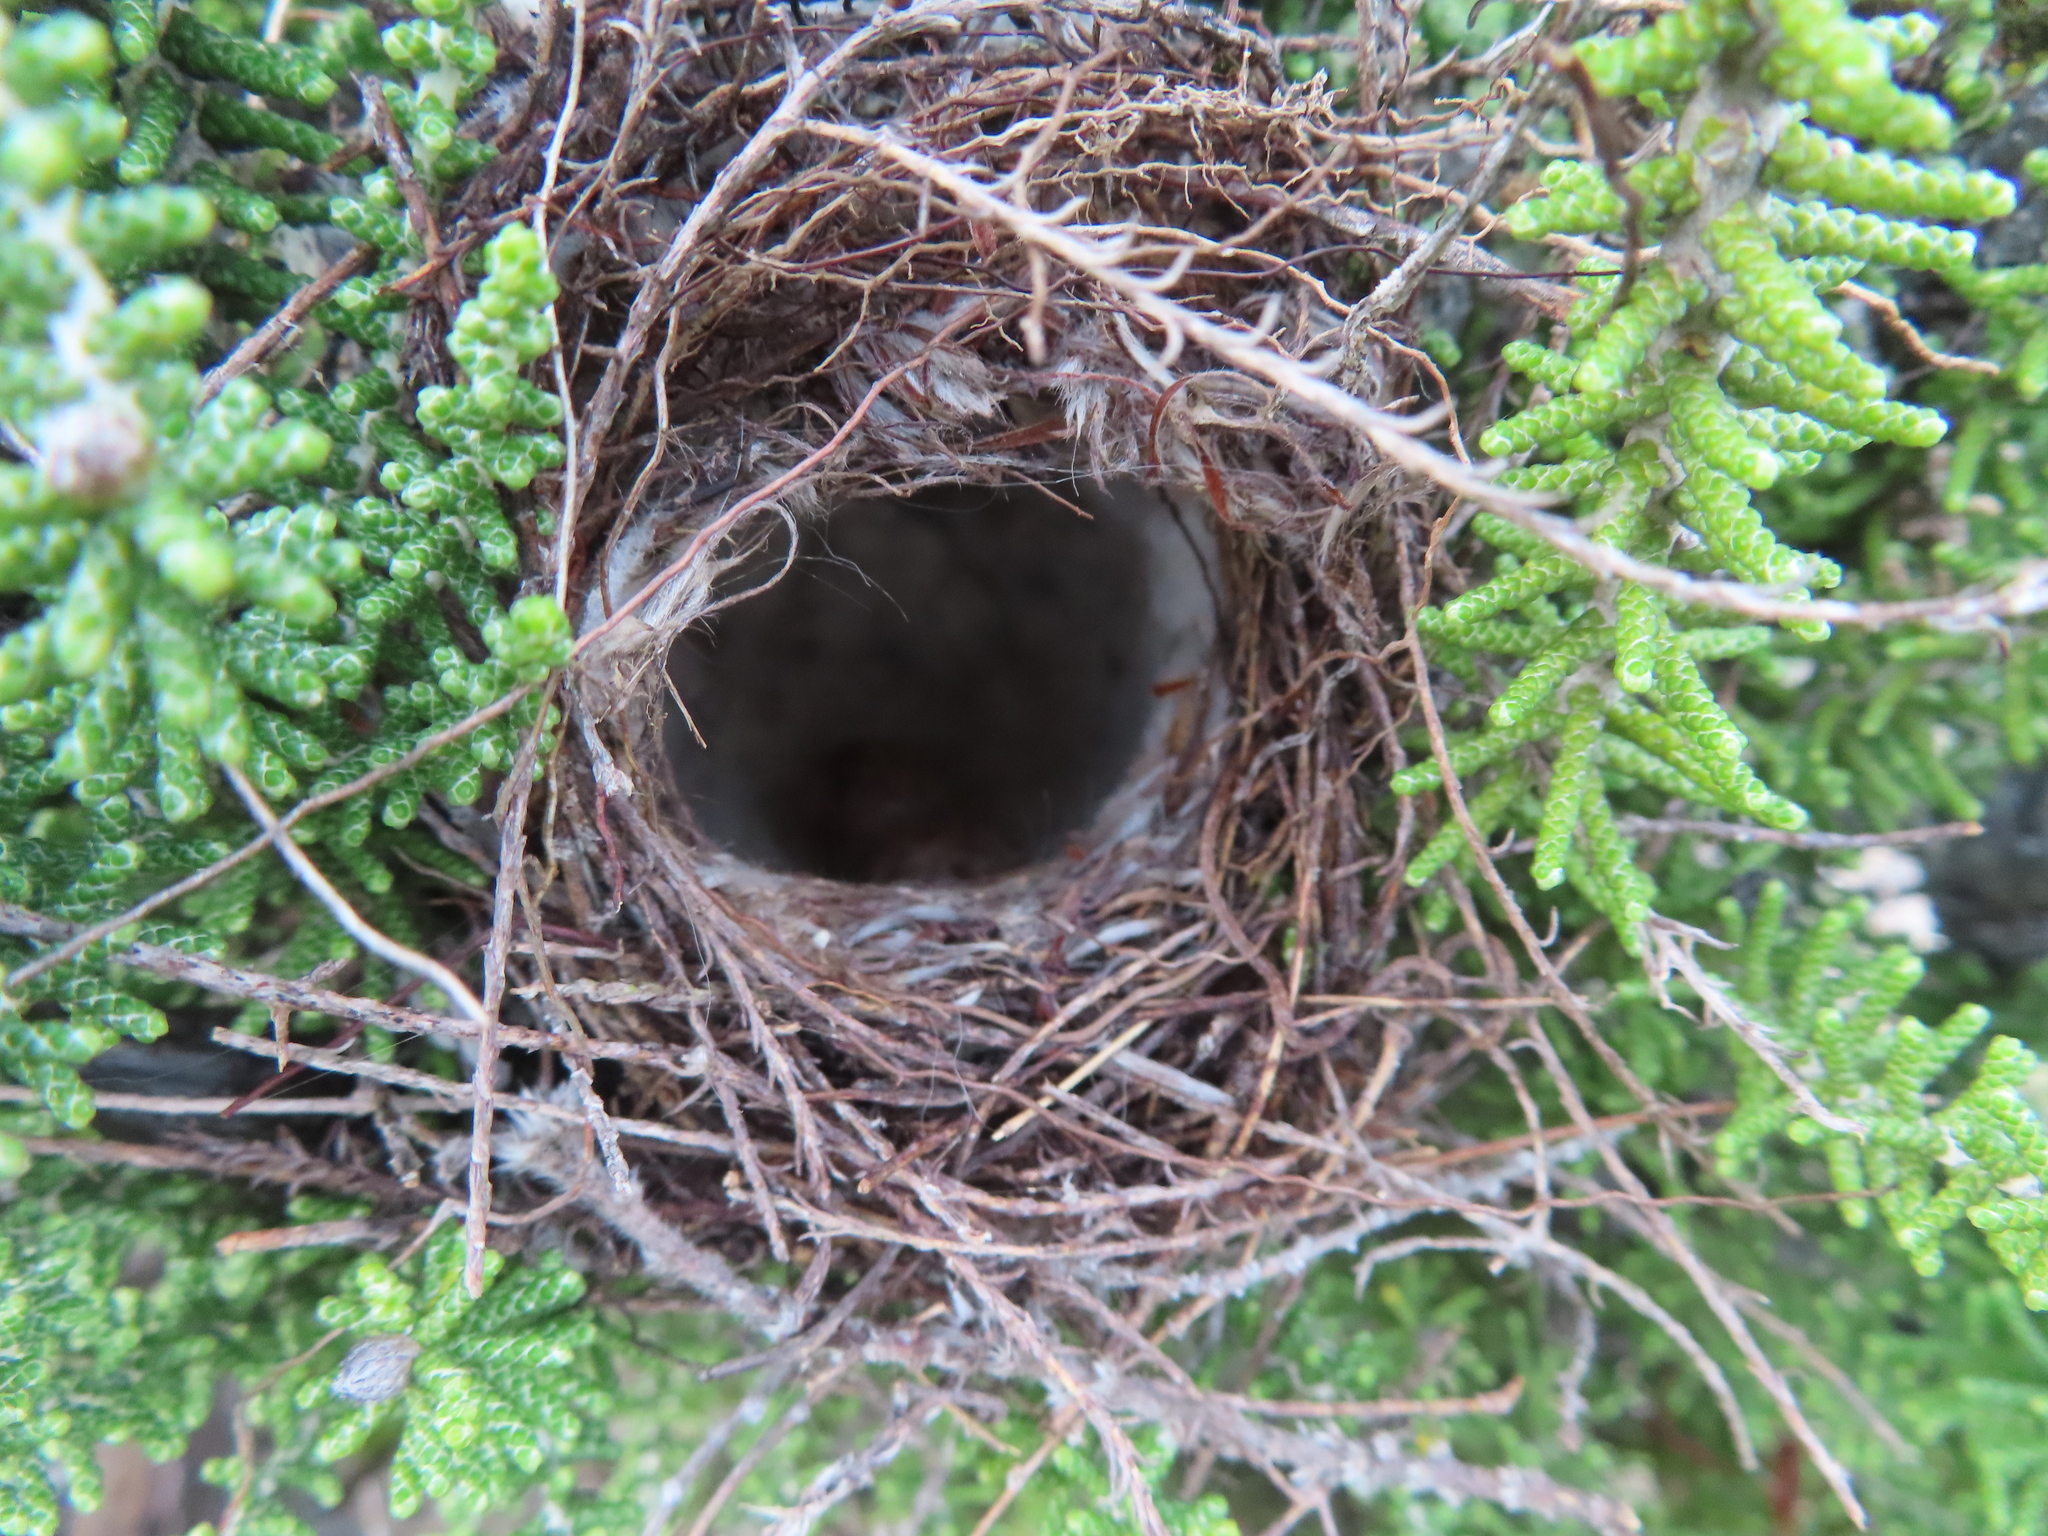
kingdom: Animalia
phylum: Chordata
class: Aves
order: Passeriformes
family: Nectariniidae
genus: Anthobaphes
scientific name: Anthobaphes violacea
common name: Orange-breasted sunbird
